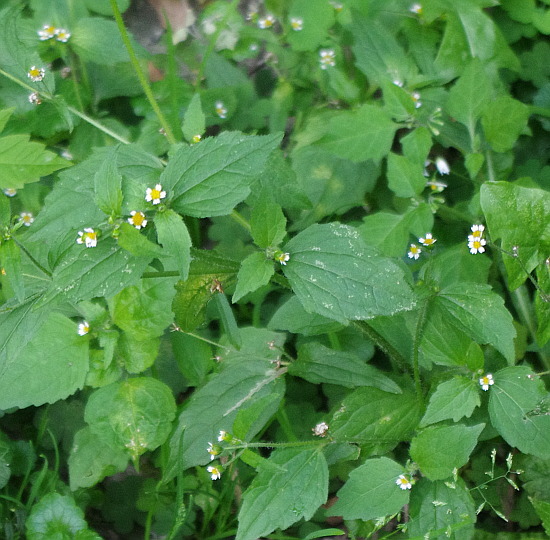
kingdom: Plantae
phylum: Tracheophyta
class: Magnoliopsida
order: Asterales
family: Asteraceae
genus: Galinsoga
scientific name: Galinsoga quadriradiata
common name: Shaggy soldier
